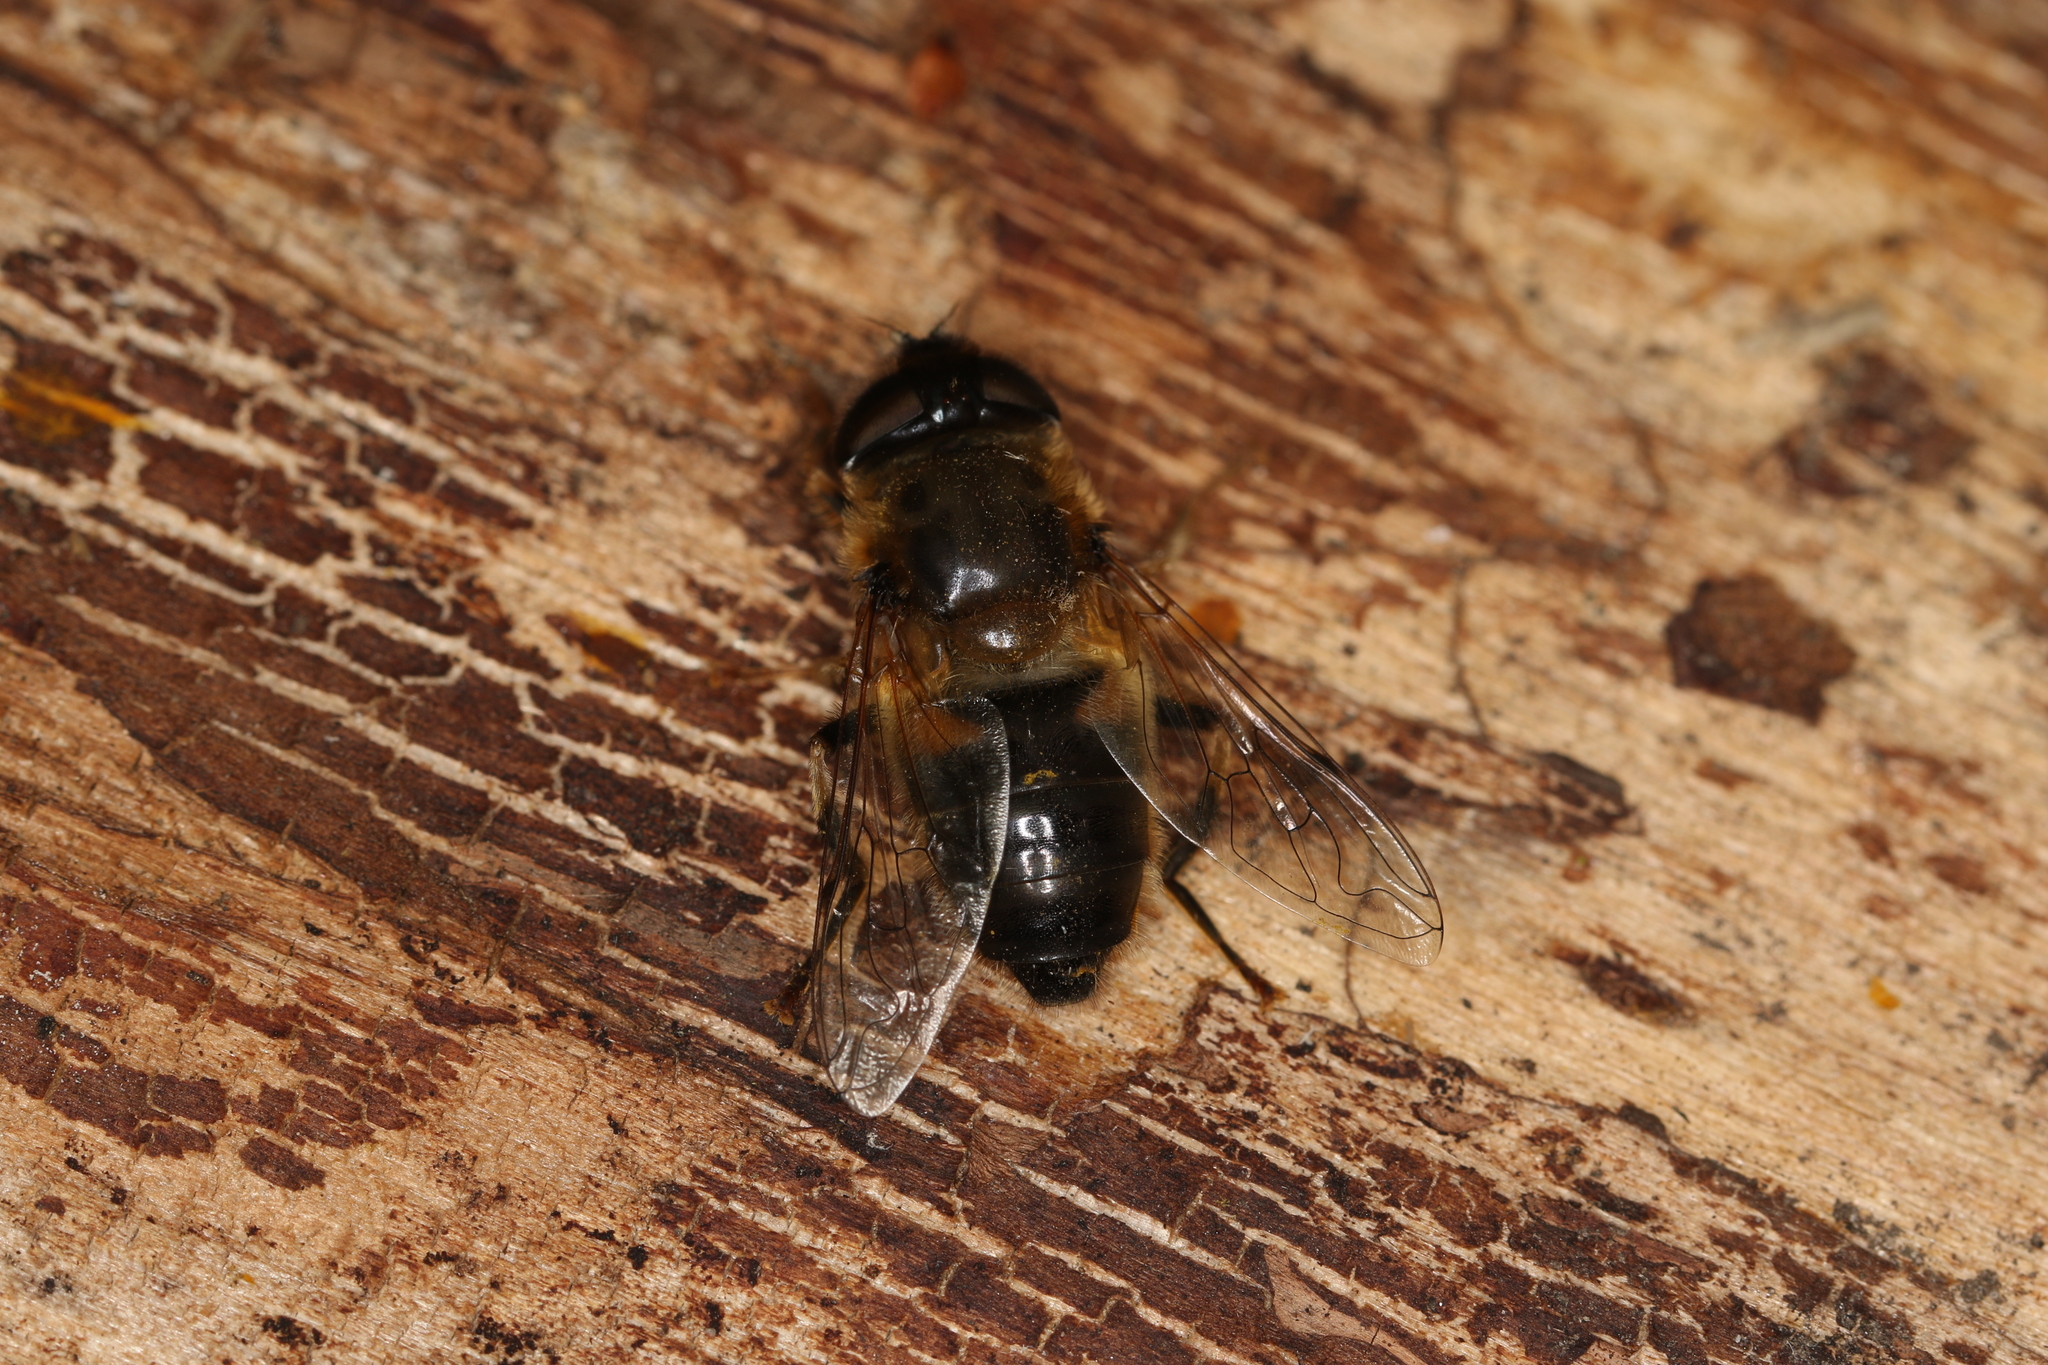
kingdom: Animalia
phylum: Arthropoda
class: Insecta
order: Diptera
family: Syrphidae
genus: Eristalis
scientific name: Eristalis pertinax
